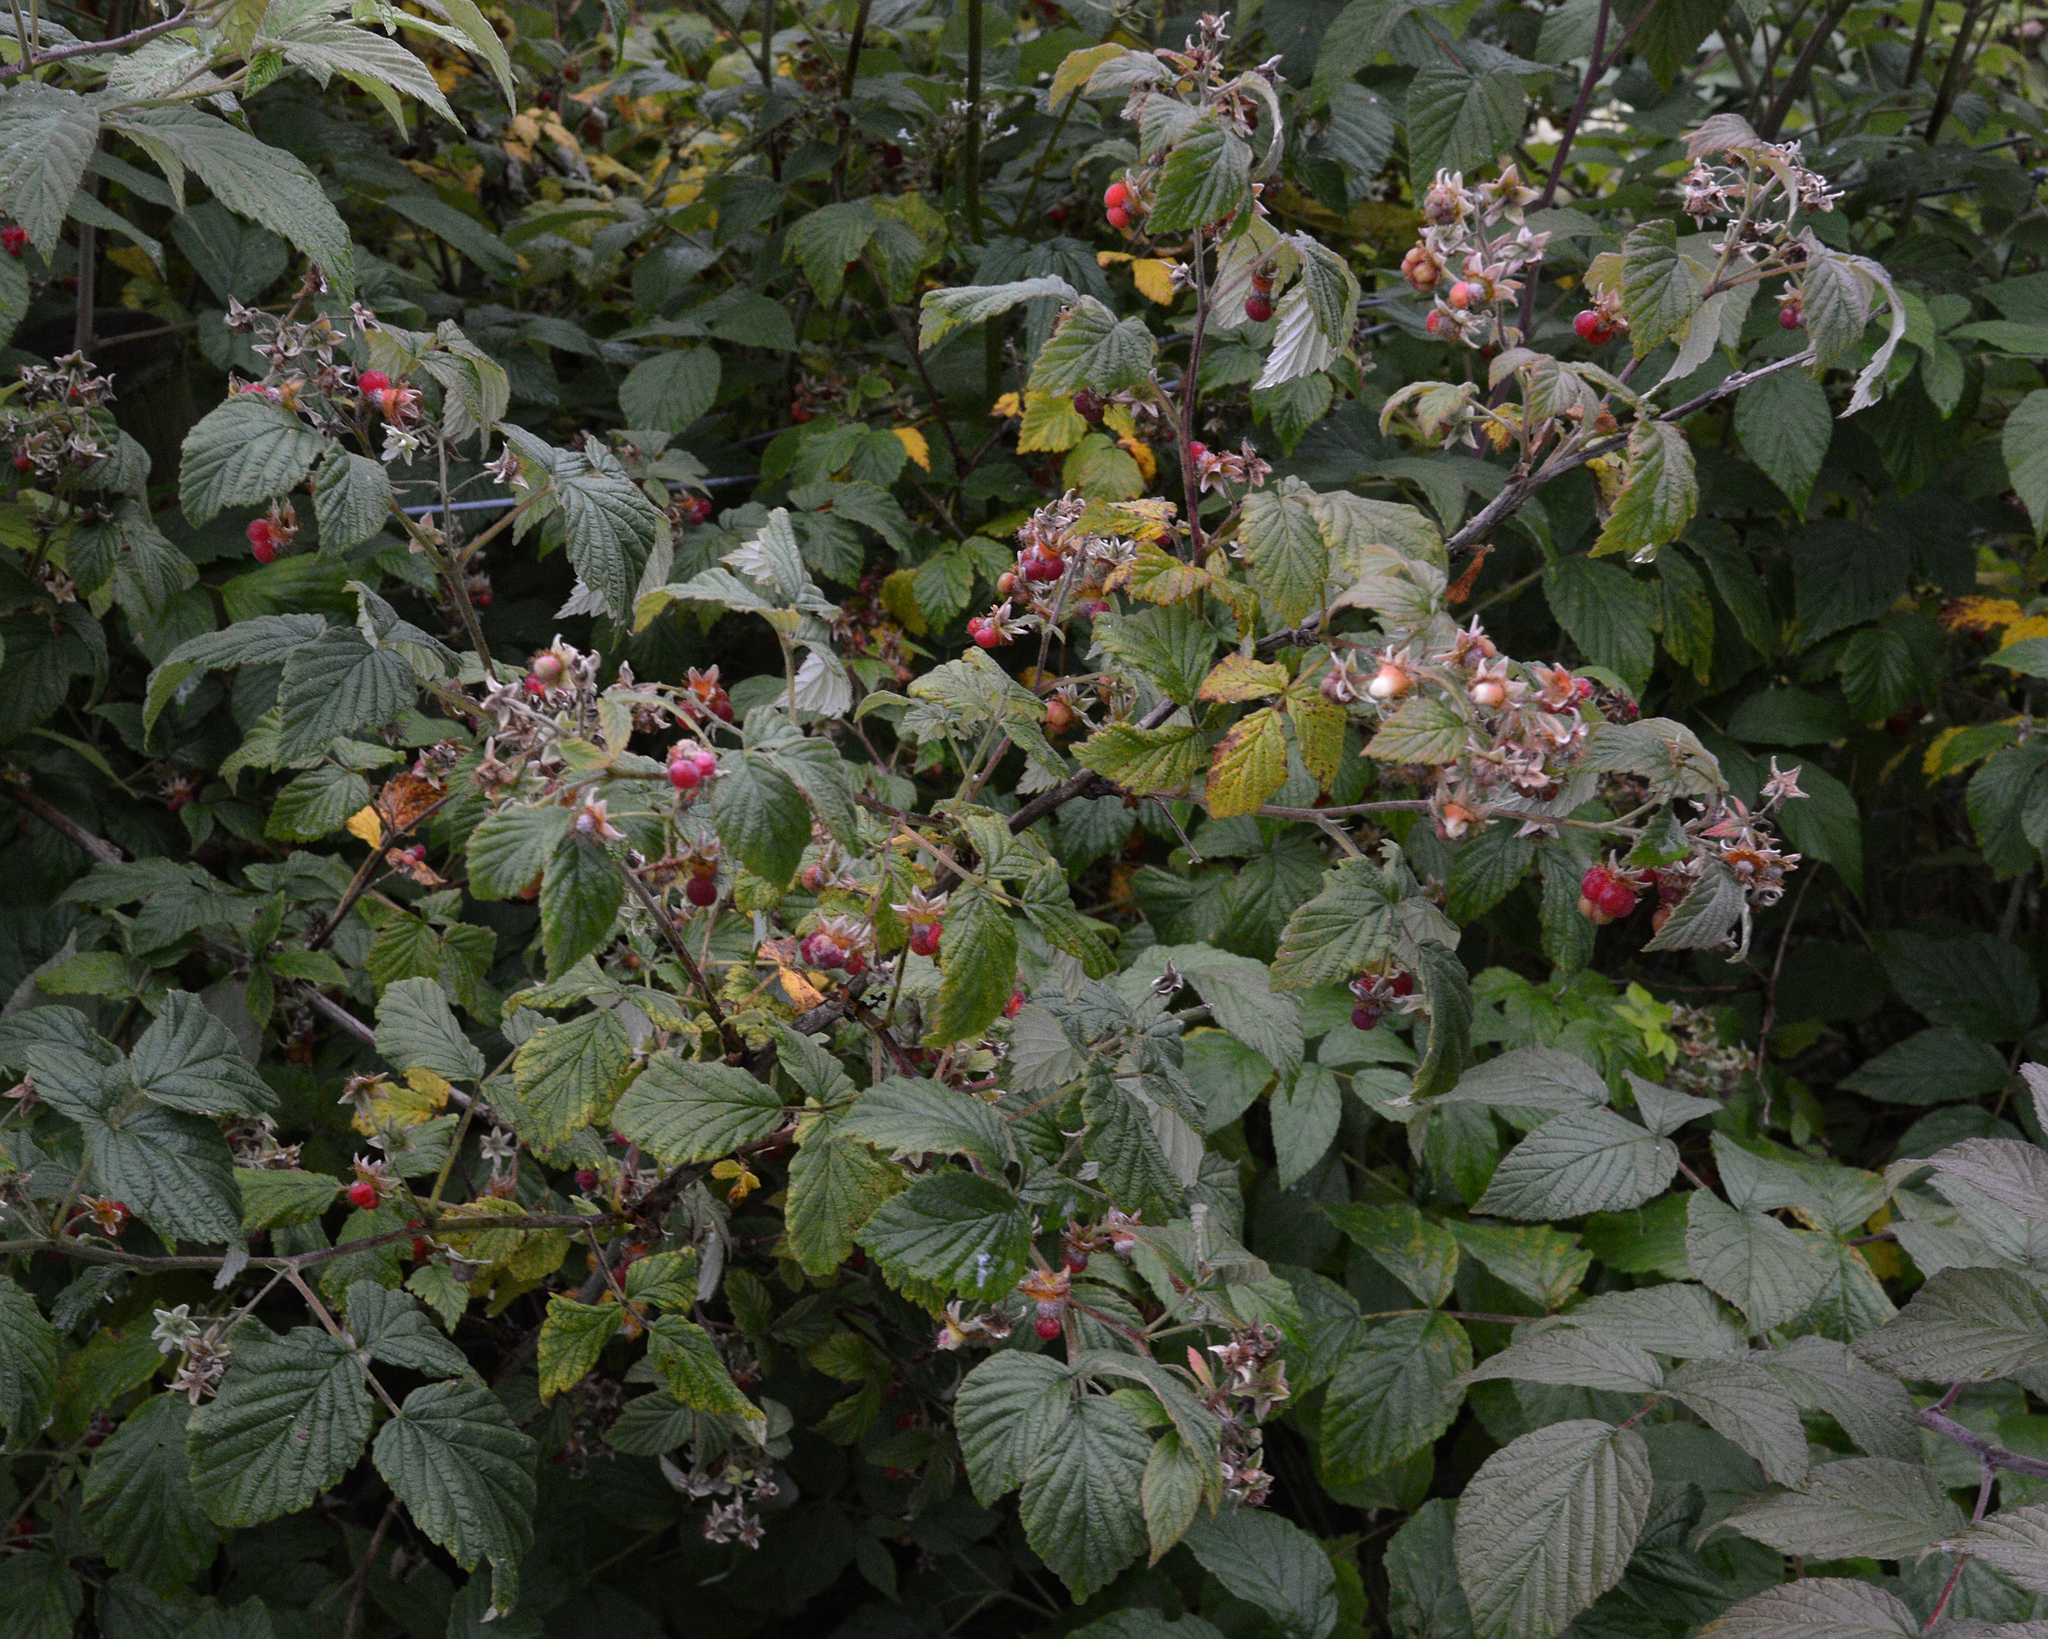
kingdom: Plantae
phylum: Tracheophyta
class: Magnoliopsida
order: Rosales
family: Rosaceae
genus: Rubus
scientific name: Rubus idaeus
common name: Raspberry
